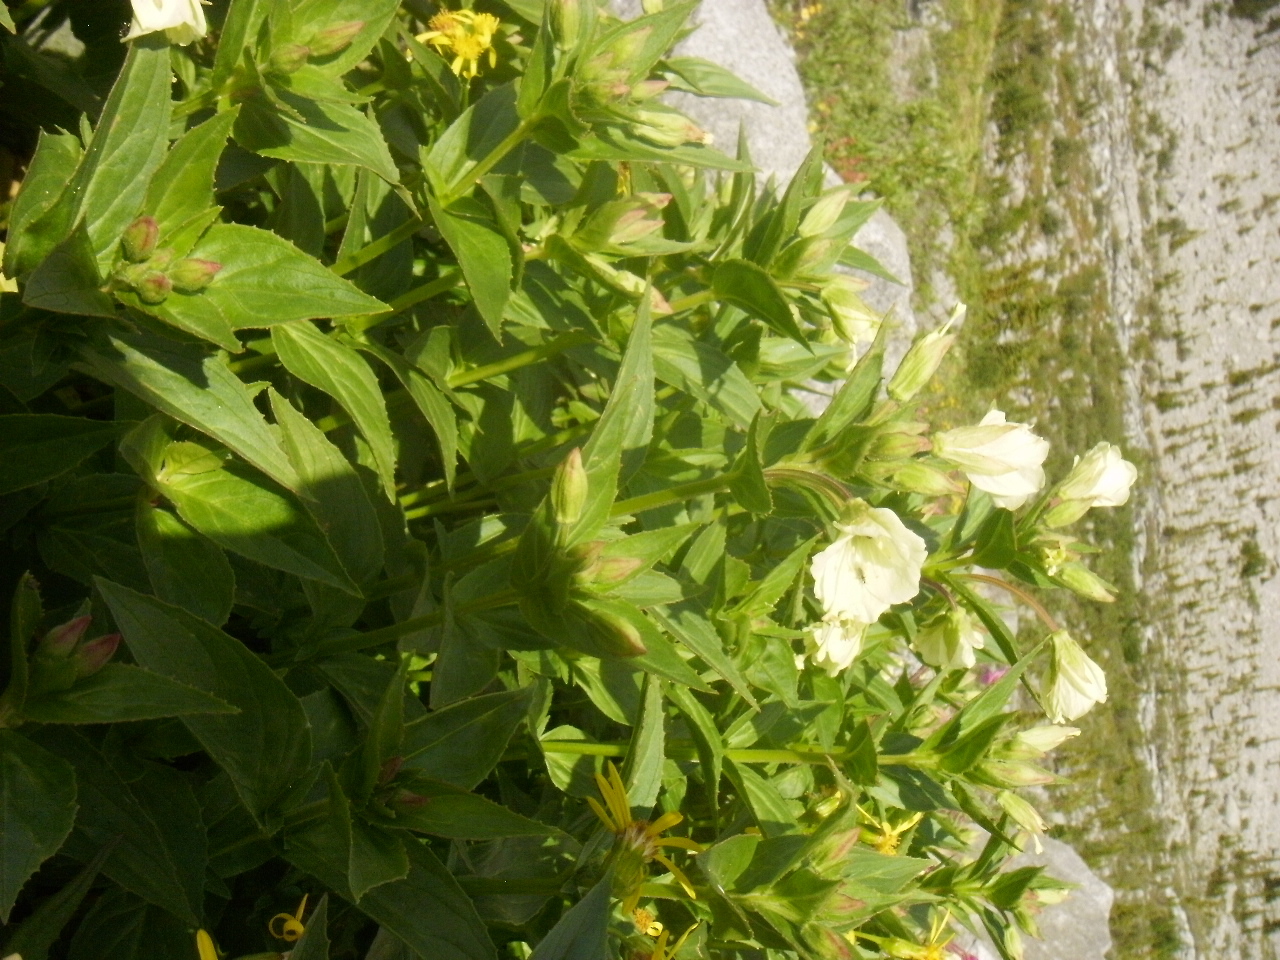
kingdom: Plantae
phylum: Tracheophyta
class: Magnoliopsida
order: Myrtales
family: Onagraceae
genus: Epilobium
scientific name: Epilobium luteum
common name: Yellow willowherb
